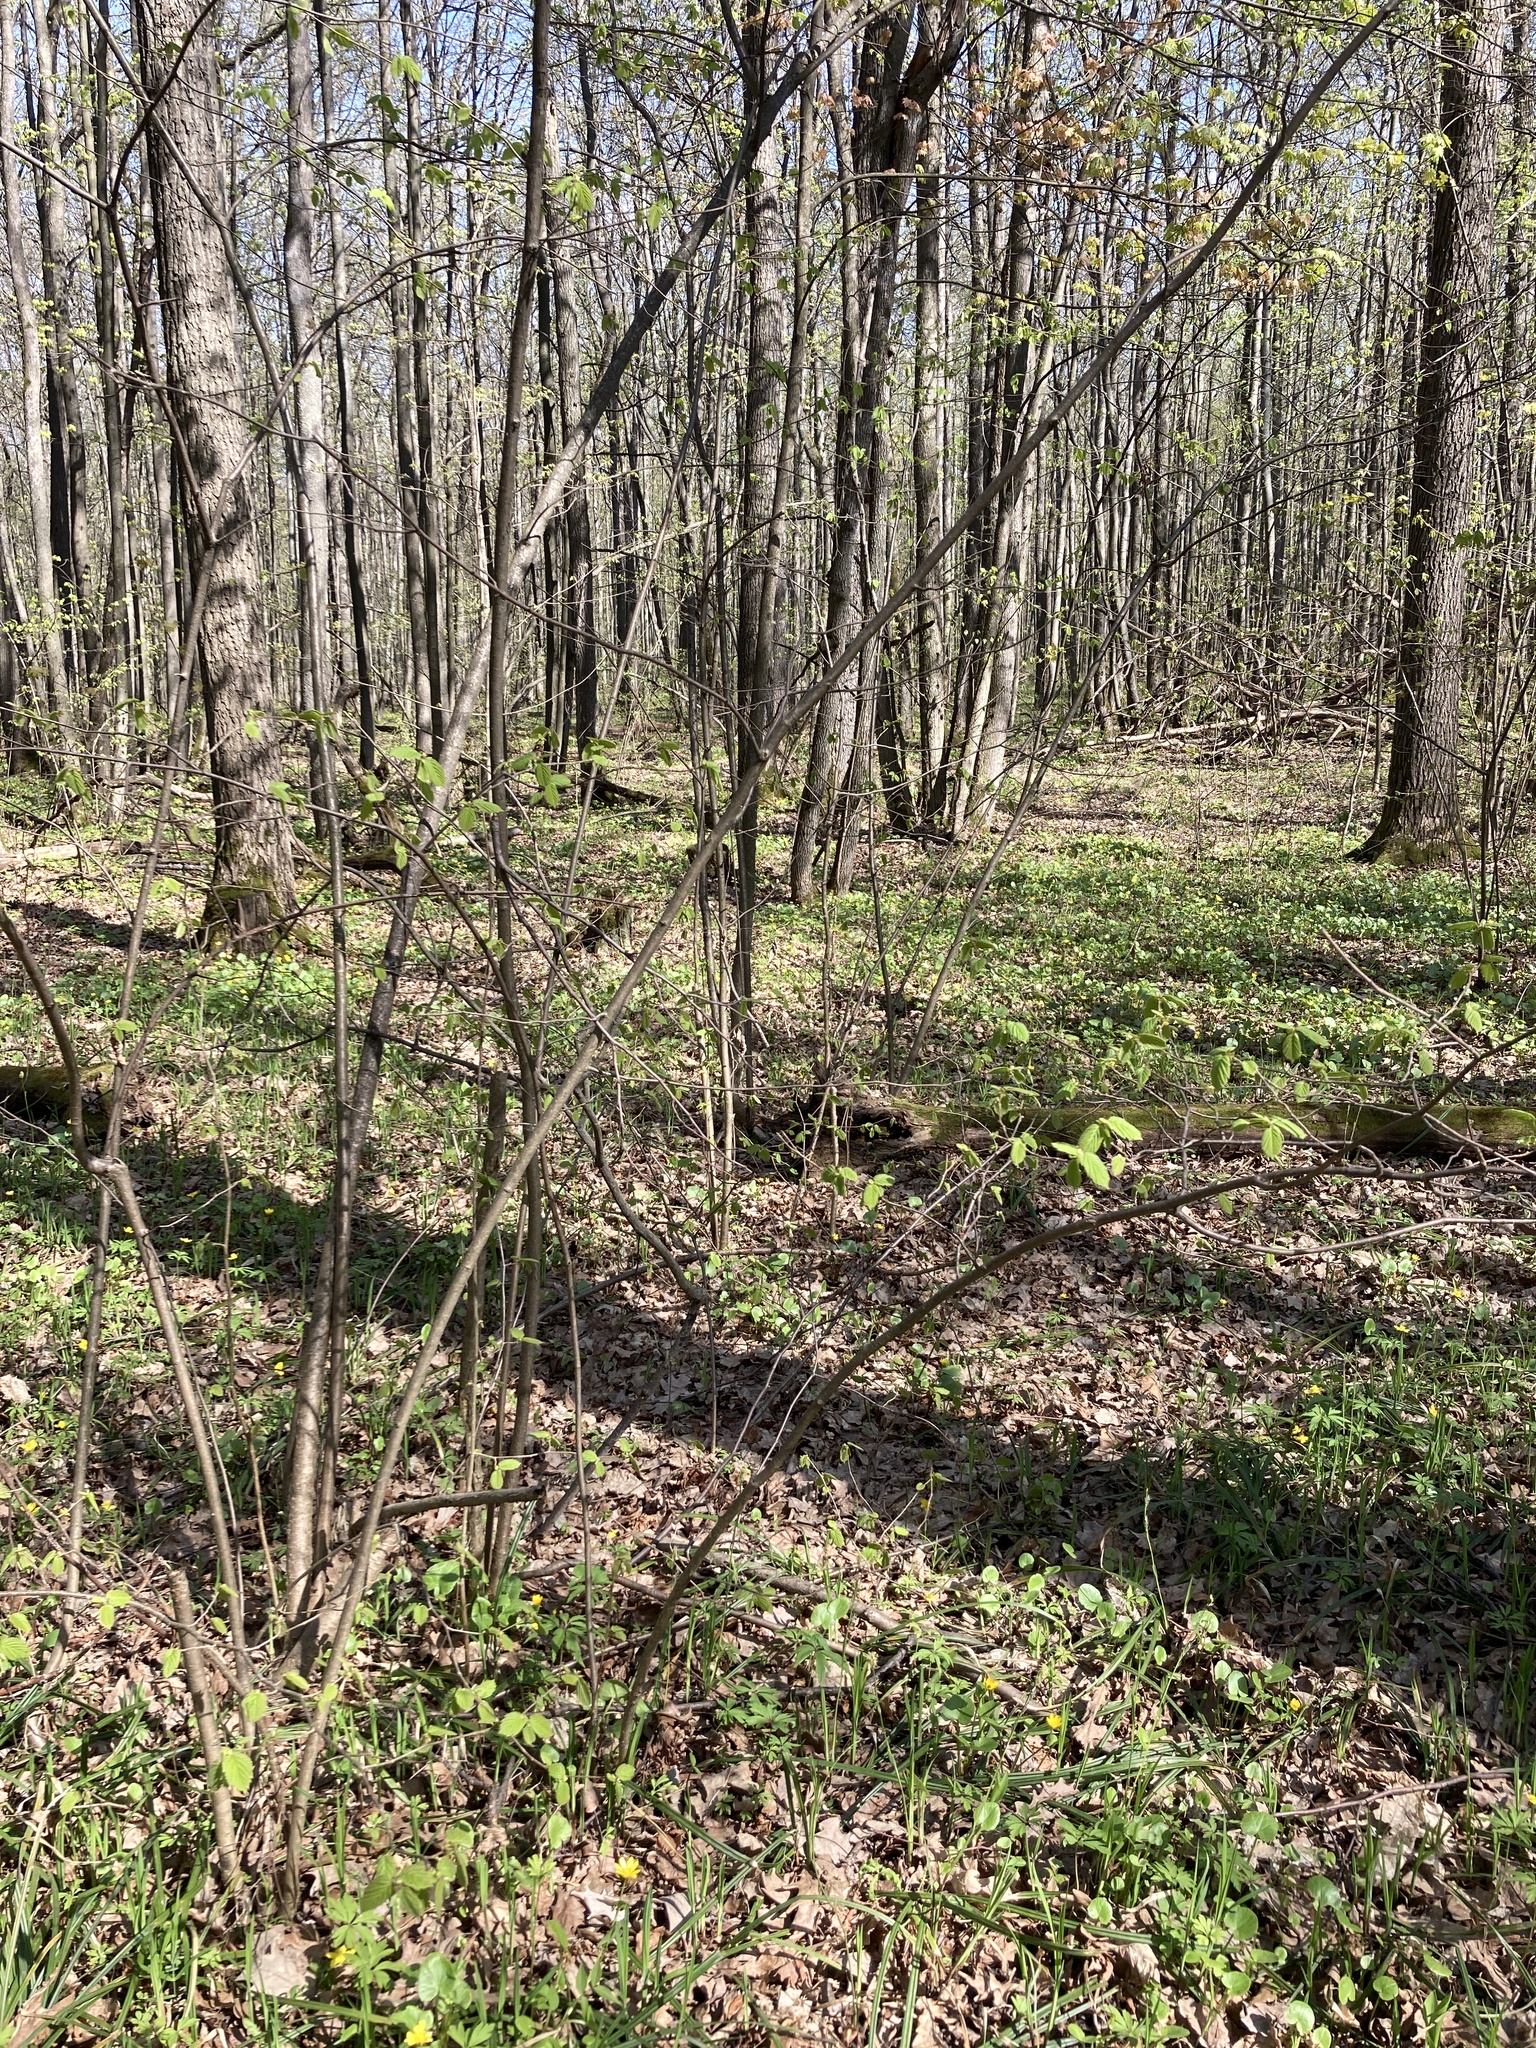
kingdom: Plantae
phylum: Tracheophyta
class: Magnoliopsida
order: Fagales
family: Betulaceae
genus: Corylus
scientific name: Corylus avellana
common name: European hazel
